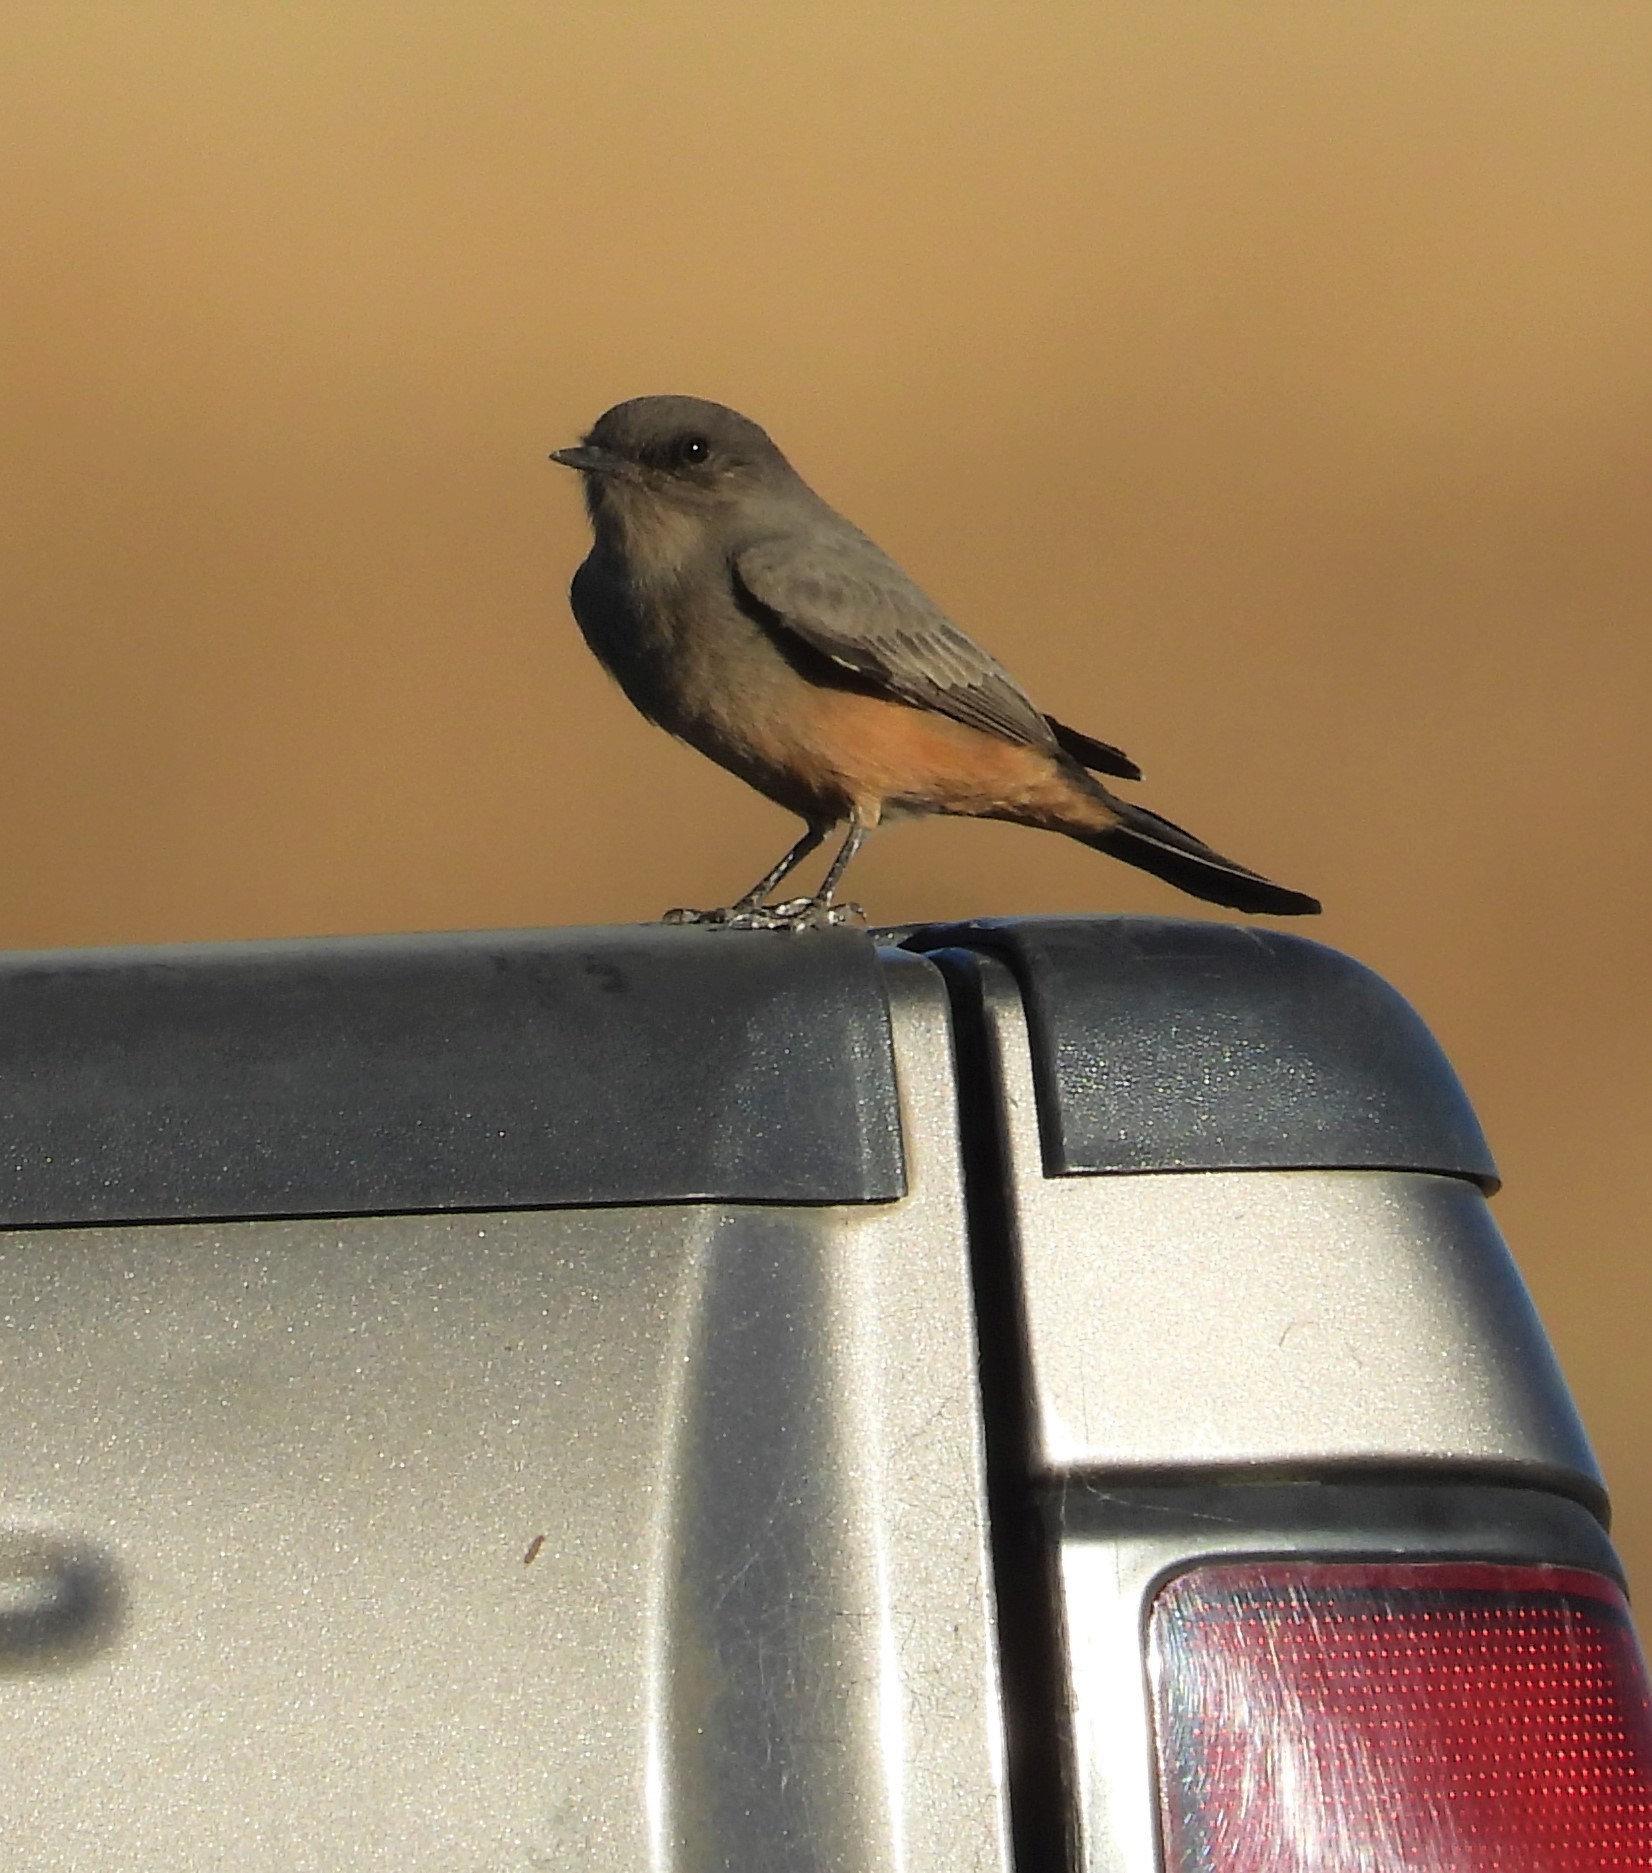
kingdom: Animalia
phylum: Chordata
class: Aves
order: Passeriformes
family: Tyrannidae
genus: Sayornis
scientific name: Sayornis saya
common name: Say's phoebe
